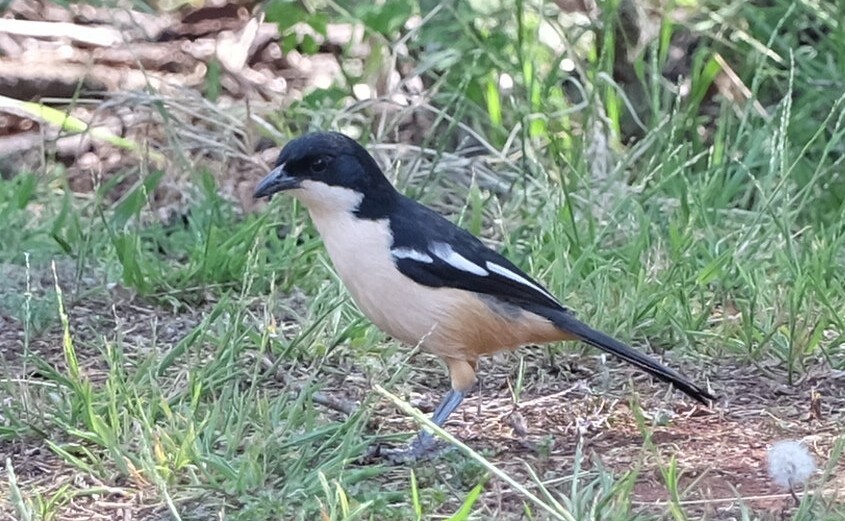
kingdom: Animalia
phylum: Chordata
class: Aves
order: Passeriformes
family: Malaconotidae
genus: Laniarius
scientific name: Laniarius ferrugineus
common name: Southern boubou
